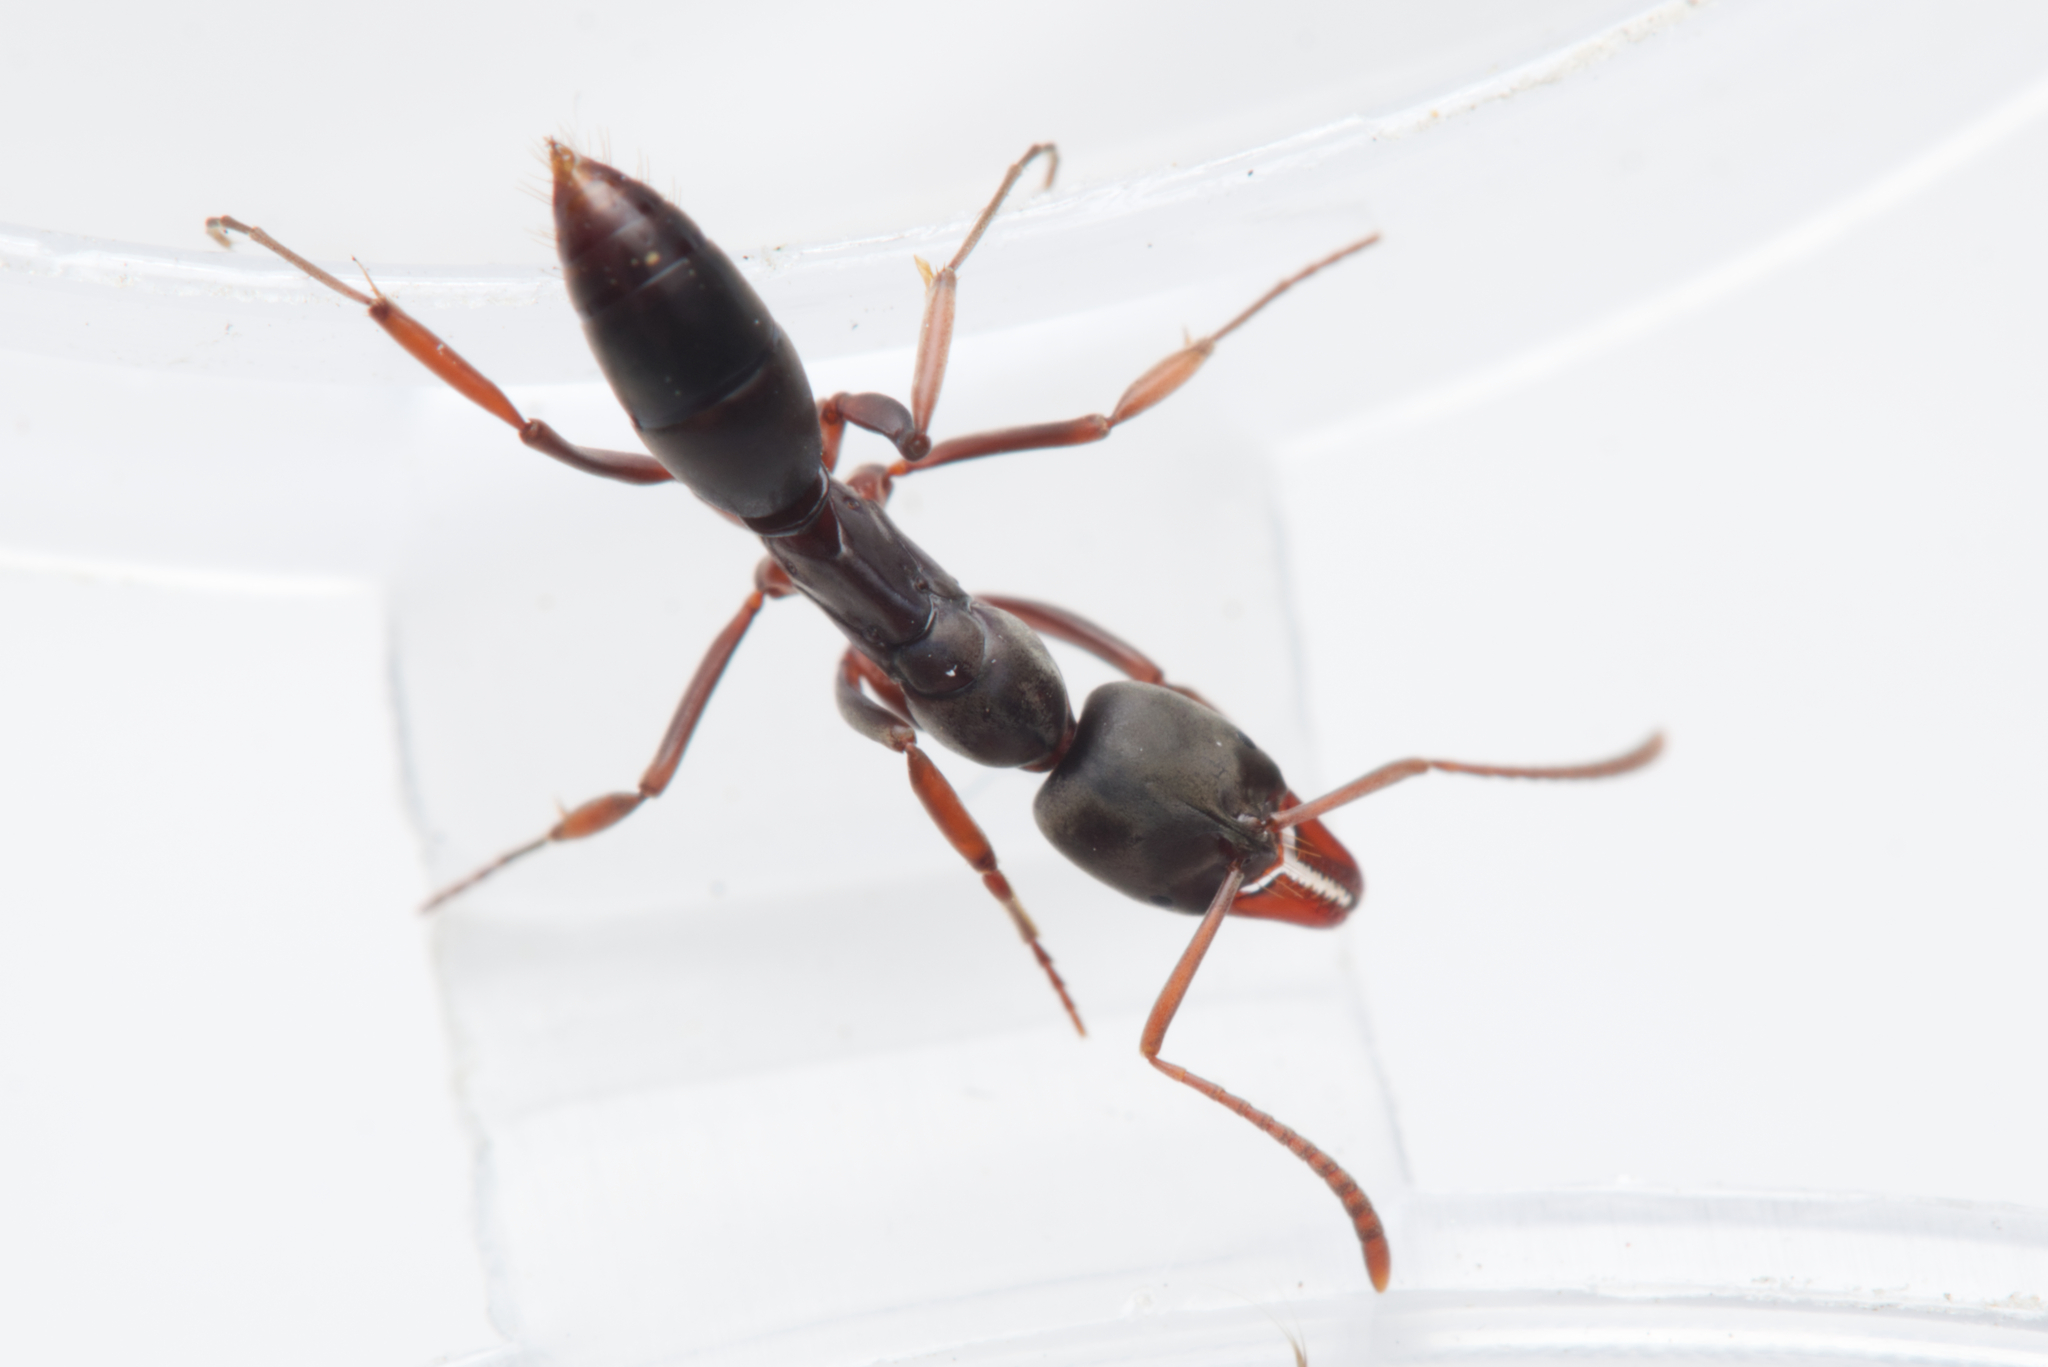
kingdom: Animalia
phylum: Arthropoda
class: Insecta
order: Hymenoptera
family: Formicidae
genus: Mesoponera
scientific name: Mesoponera
